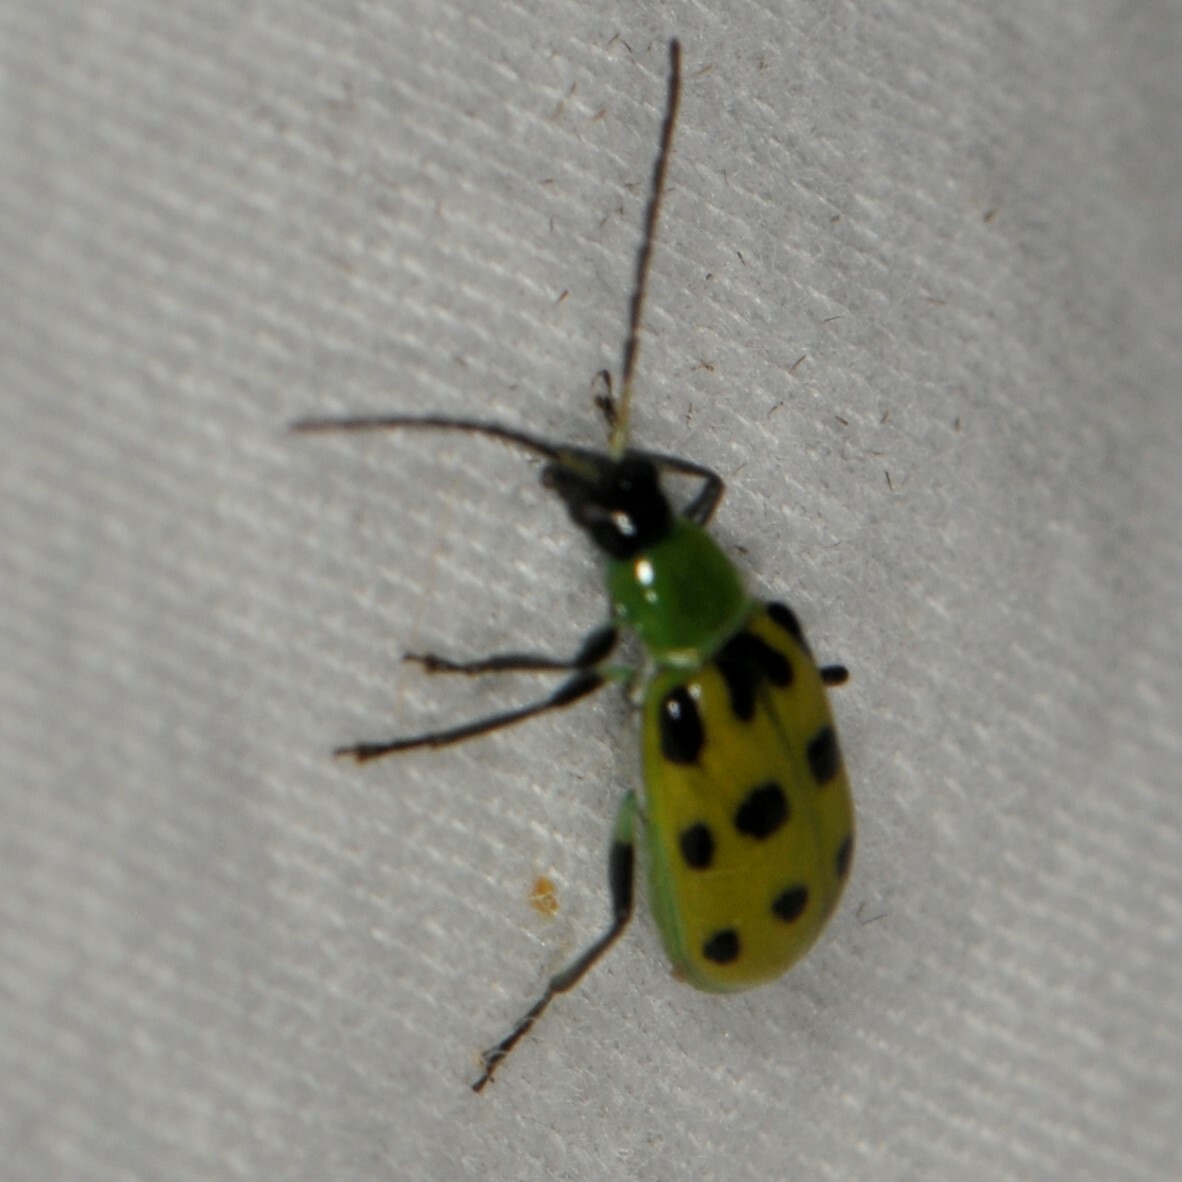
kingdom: Animalia
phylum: Arthropoda
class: Insecta
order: Coleoptera
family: Chrysomelidae
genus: Diabrotica
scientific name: Diabrotica undecimpunctata
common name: Spotted cucumber beetle
